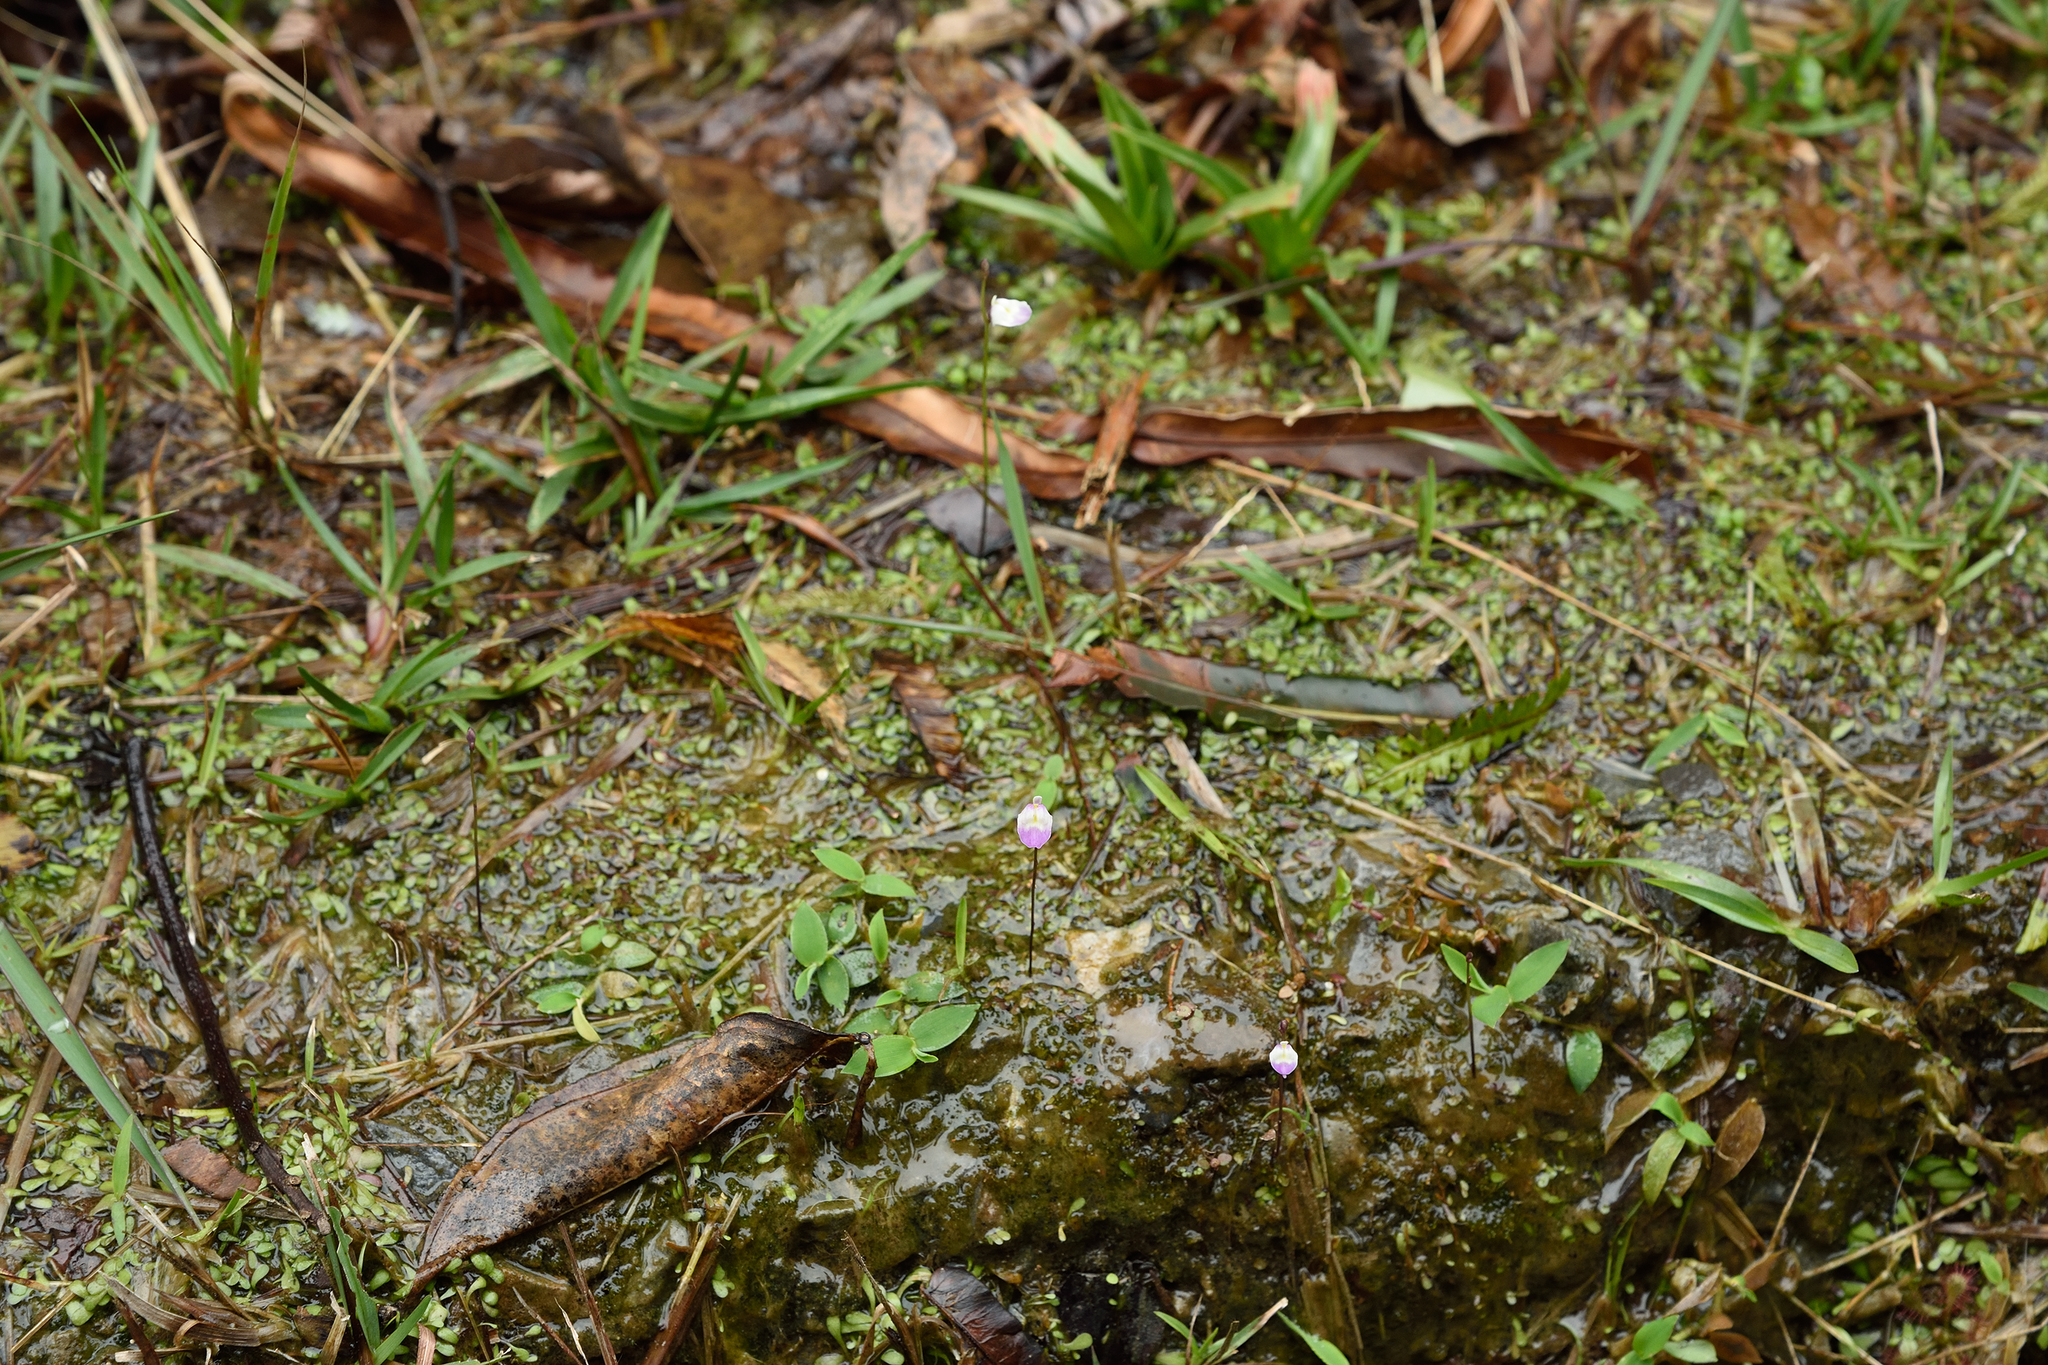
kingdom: Plantae
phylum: Tracheophyta
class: Magnoliopsida
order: Lamiales
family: Lentibulariaceae
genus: Utricularia
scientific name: Utricularia livida
